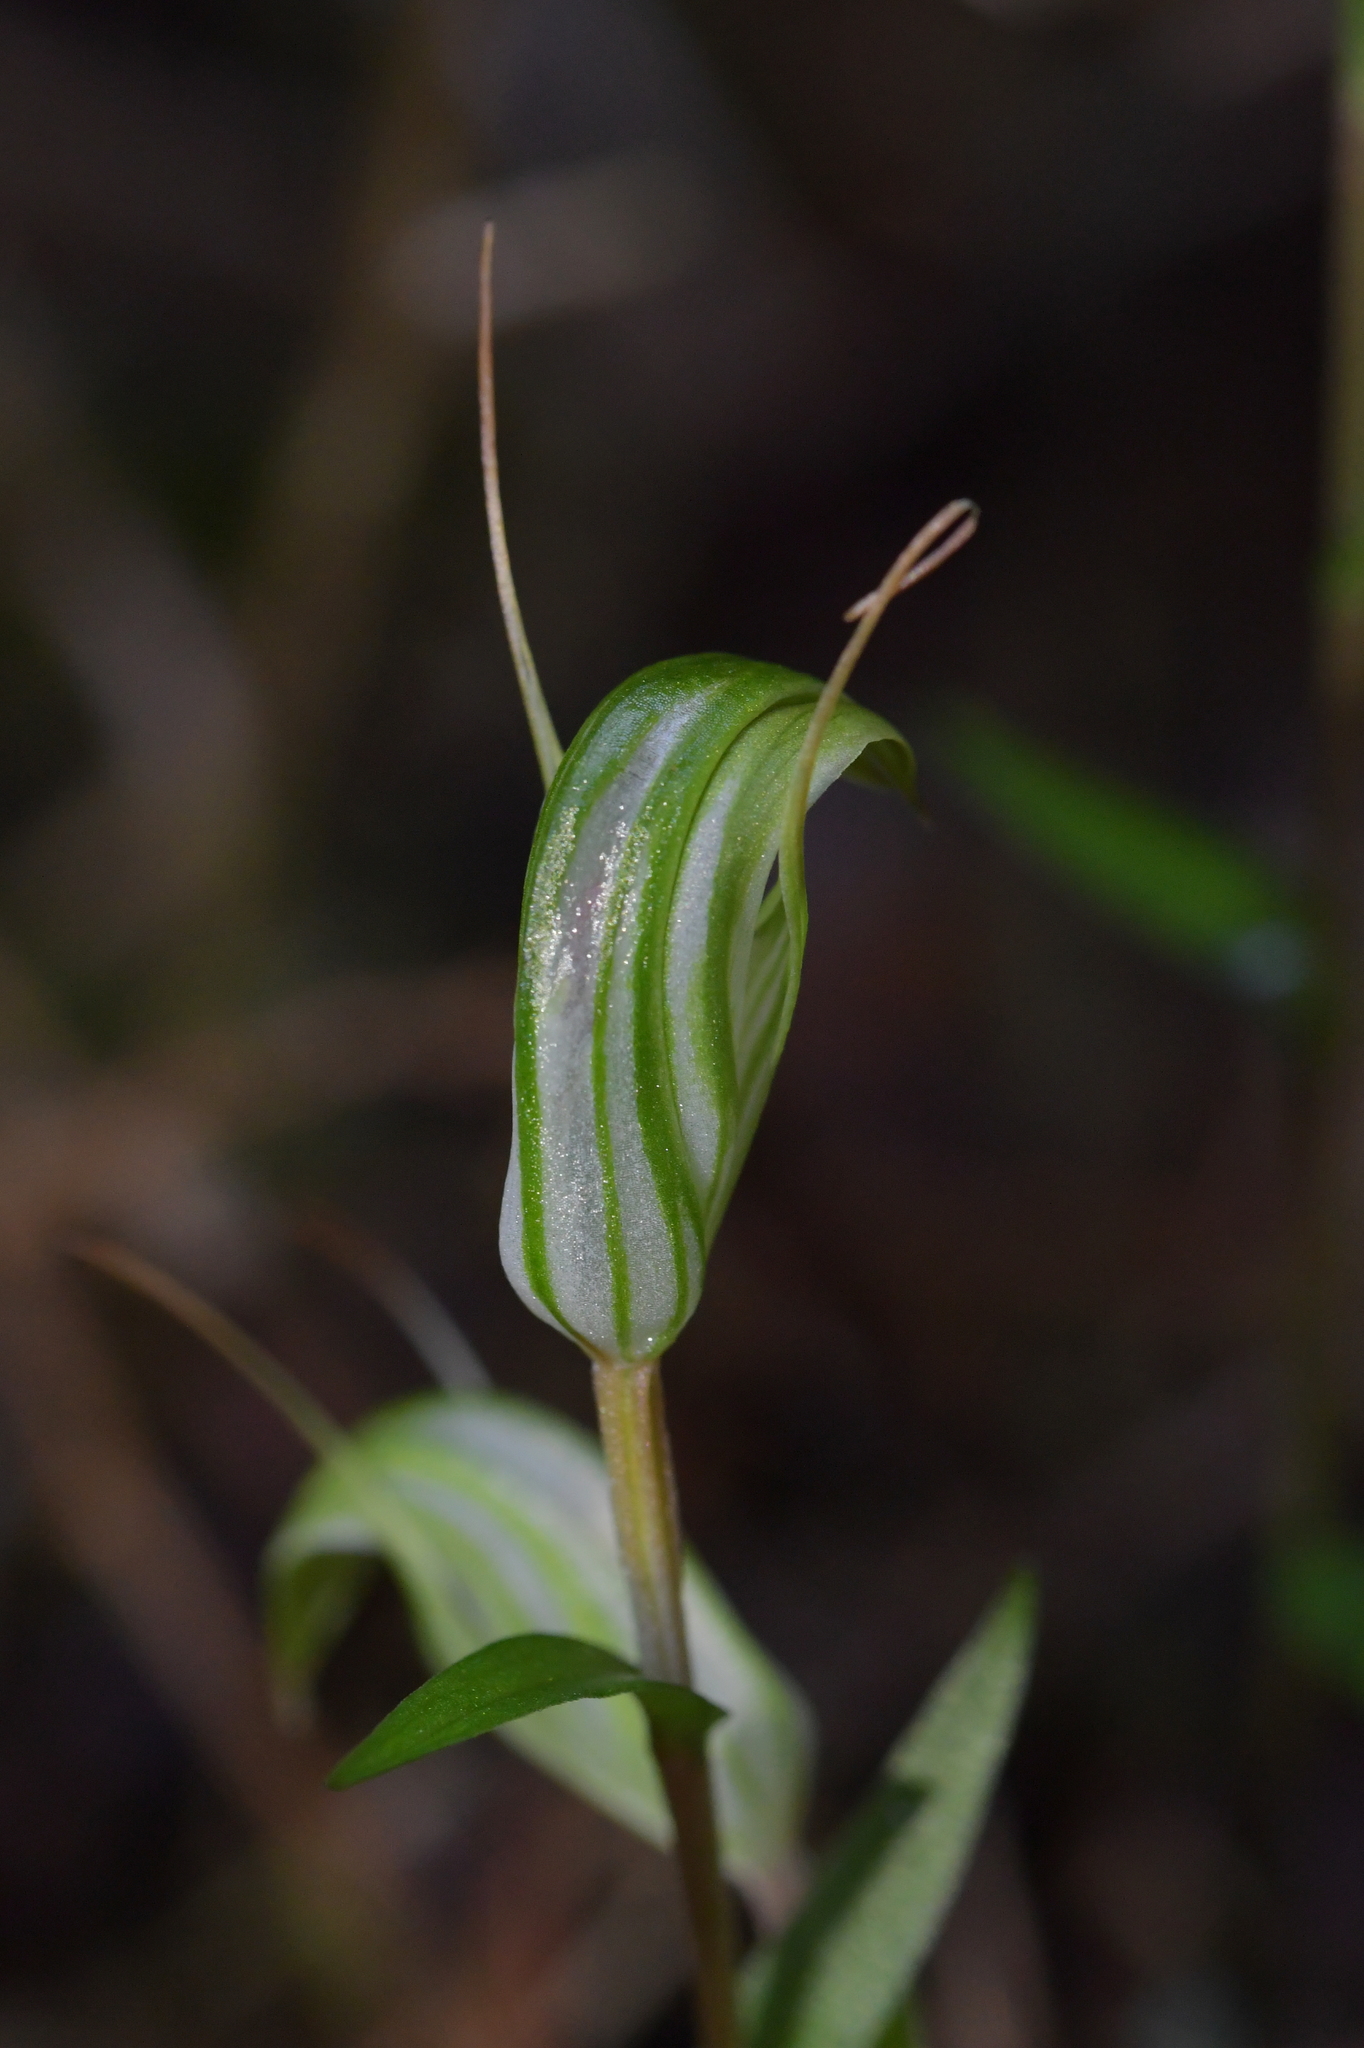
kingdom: Plantae
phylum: Tracheophyta
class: Liliopsida
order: Asparagales
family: Orchidaceae
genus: Pterostylis
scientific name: Pterostylis alobula
